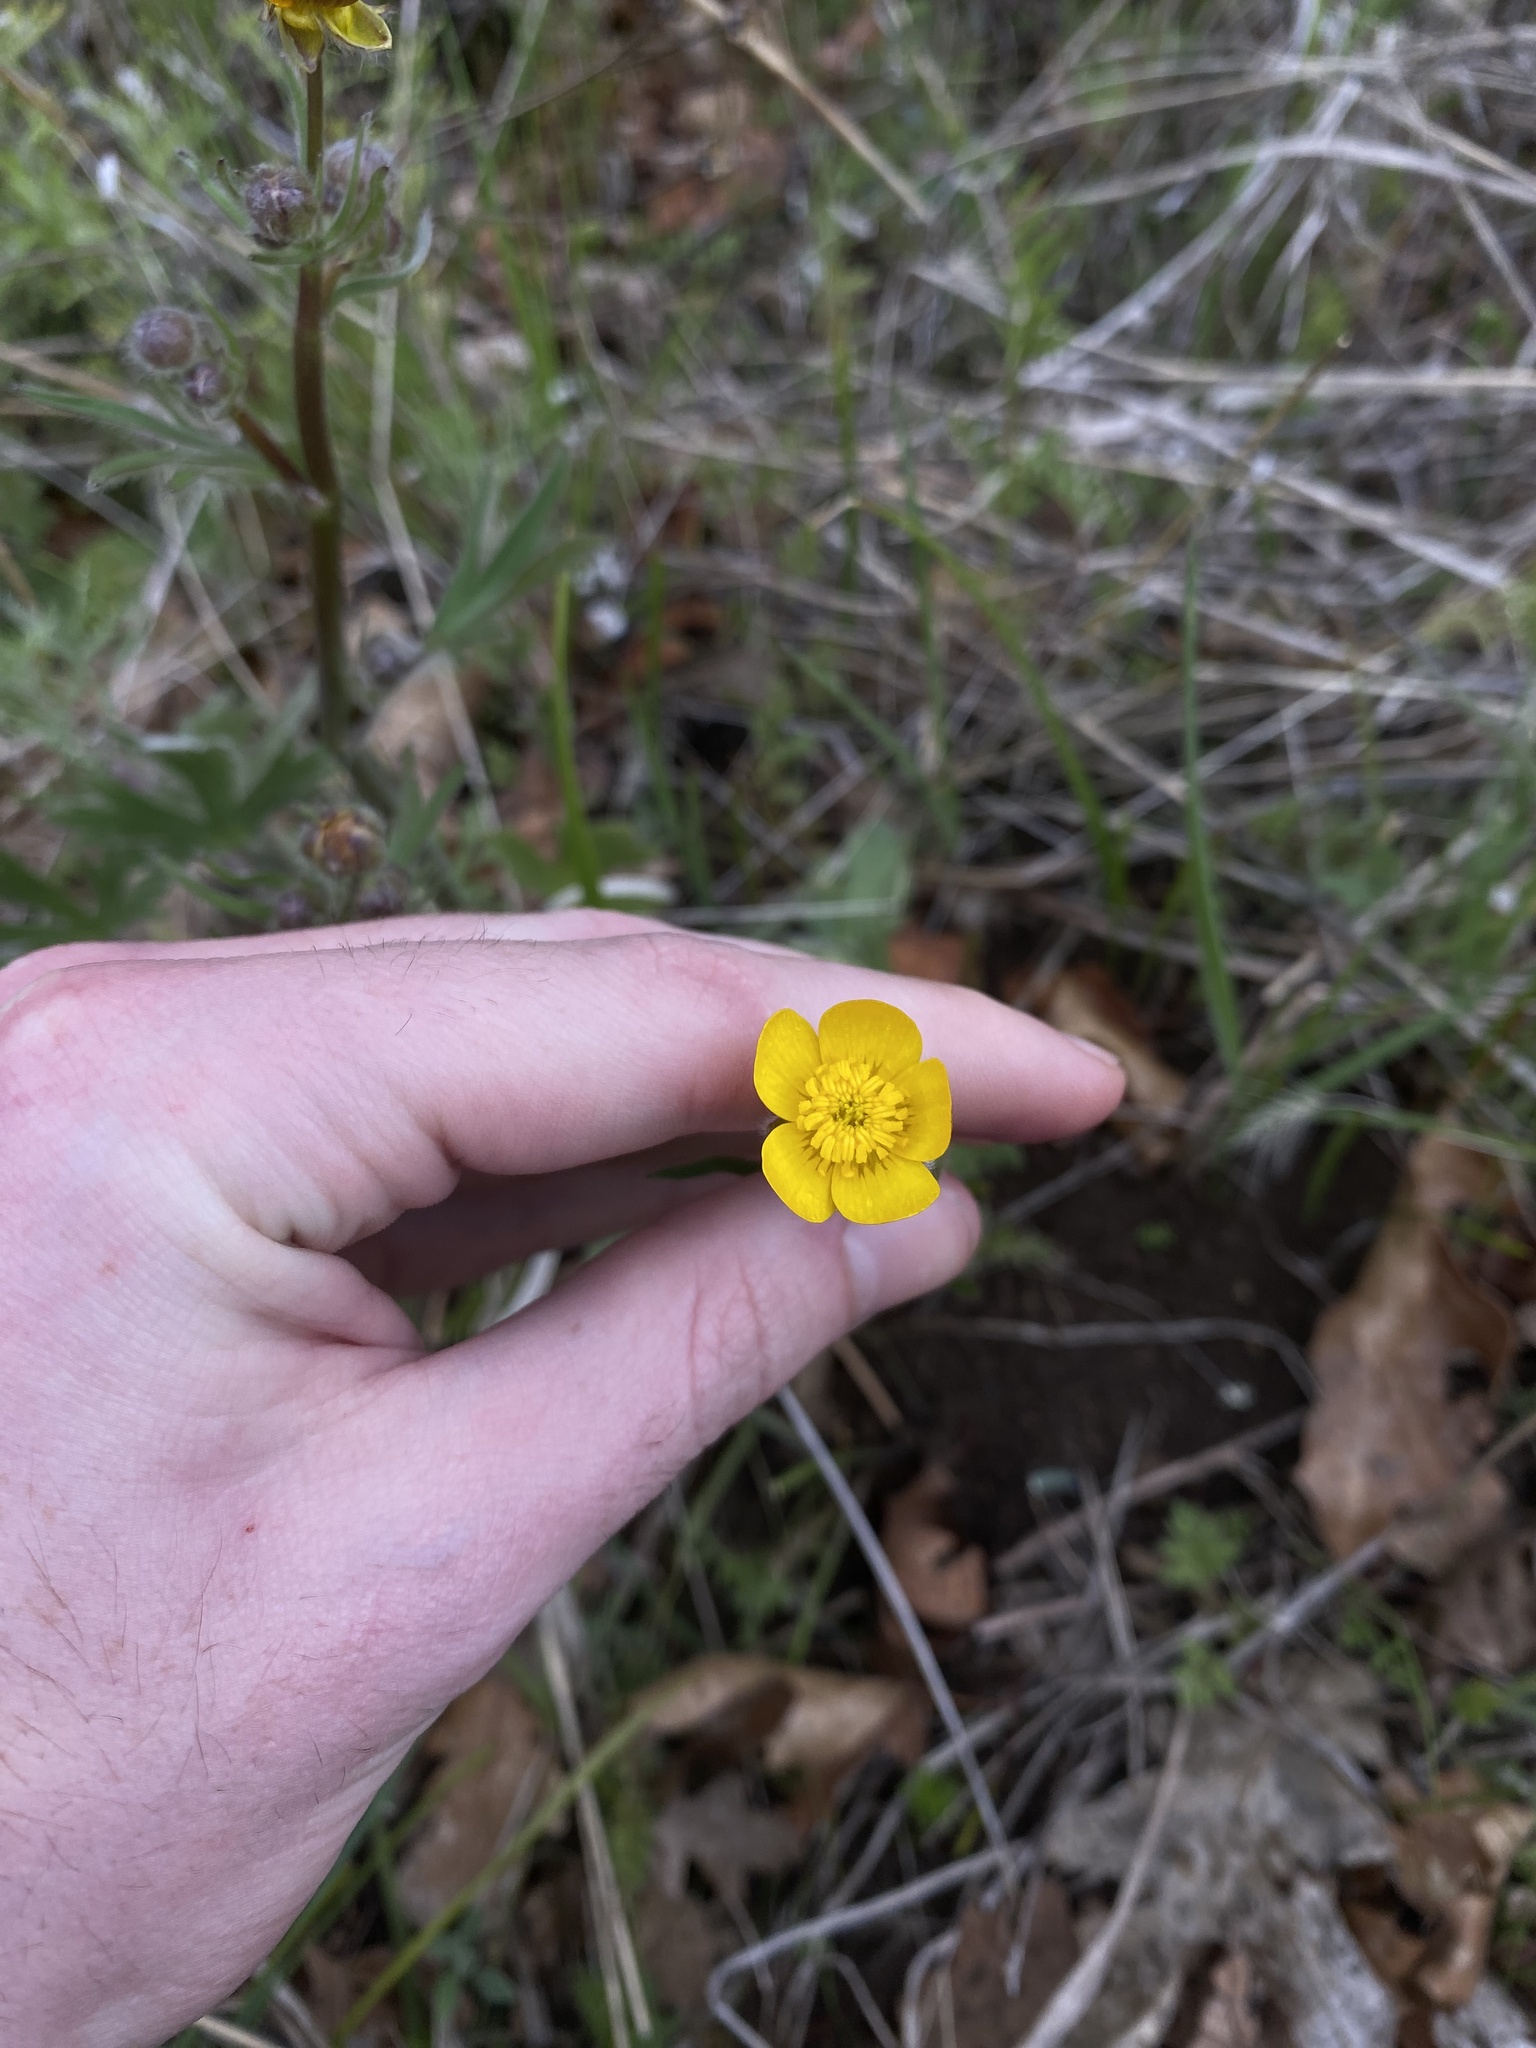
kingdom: Plantae
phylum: Tracheophyta
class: Magnoliopsida
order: Ranunculales
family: Ranunculaceae
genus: Ranunculus
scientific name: Ranunculus austrooreganus
